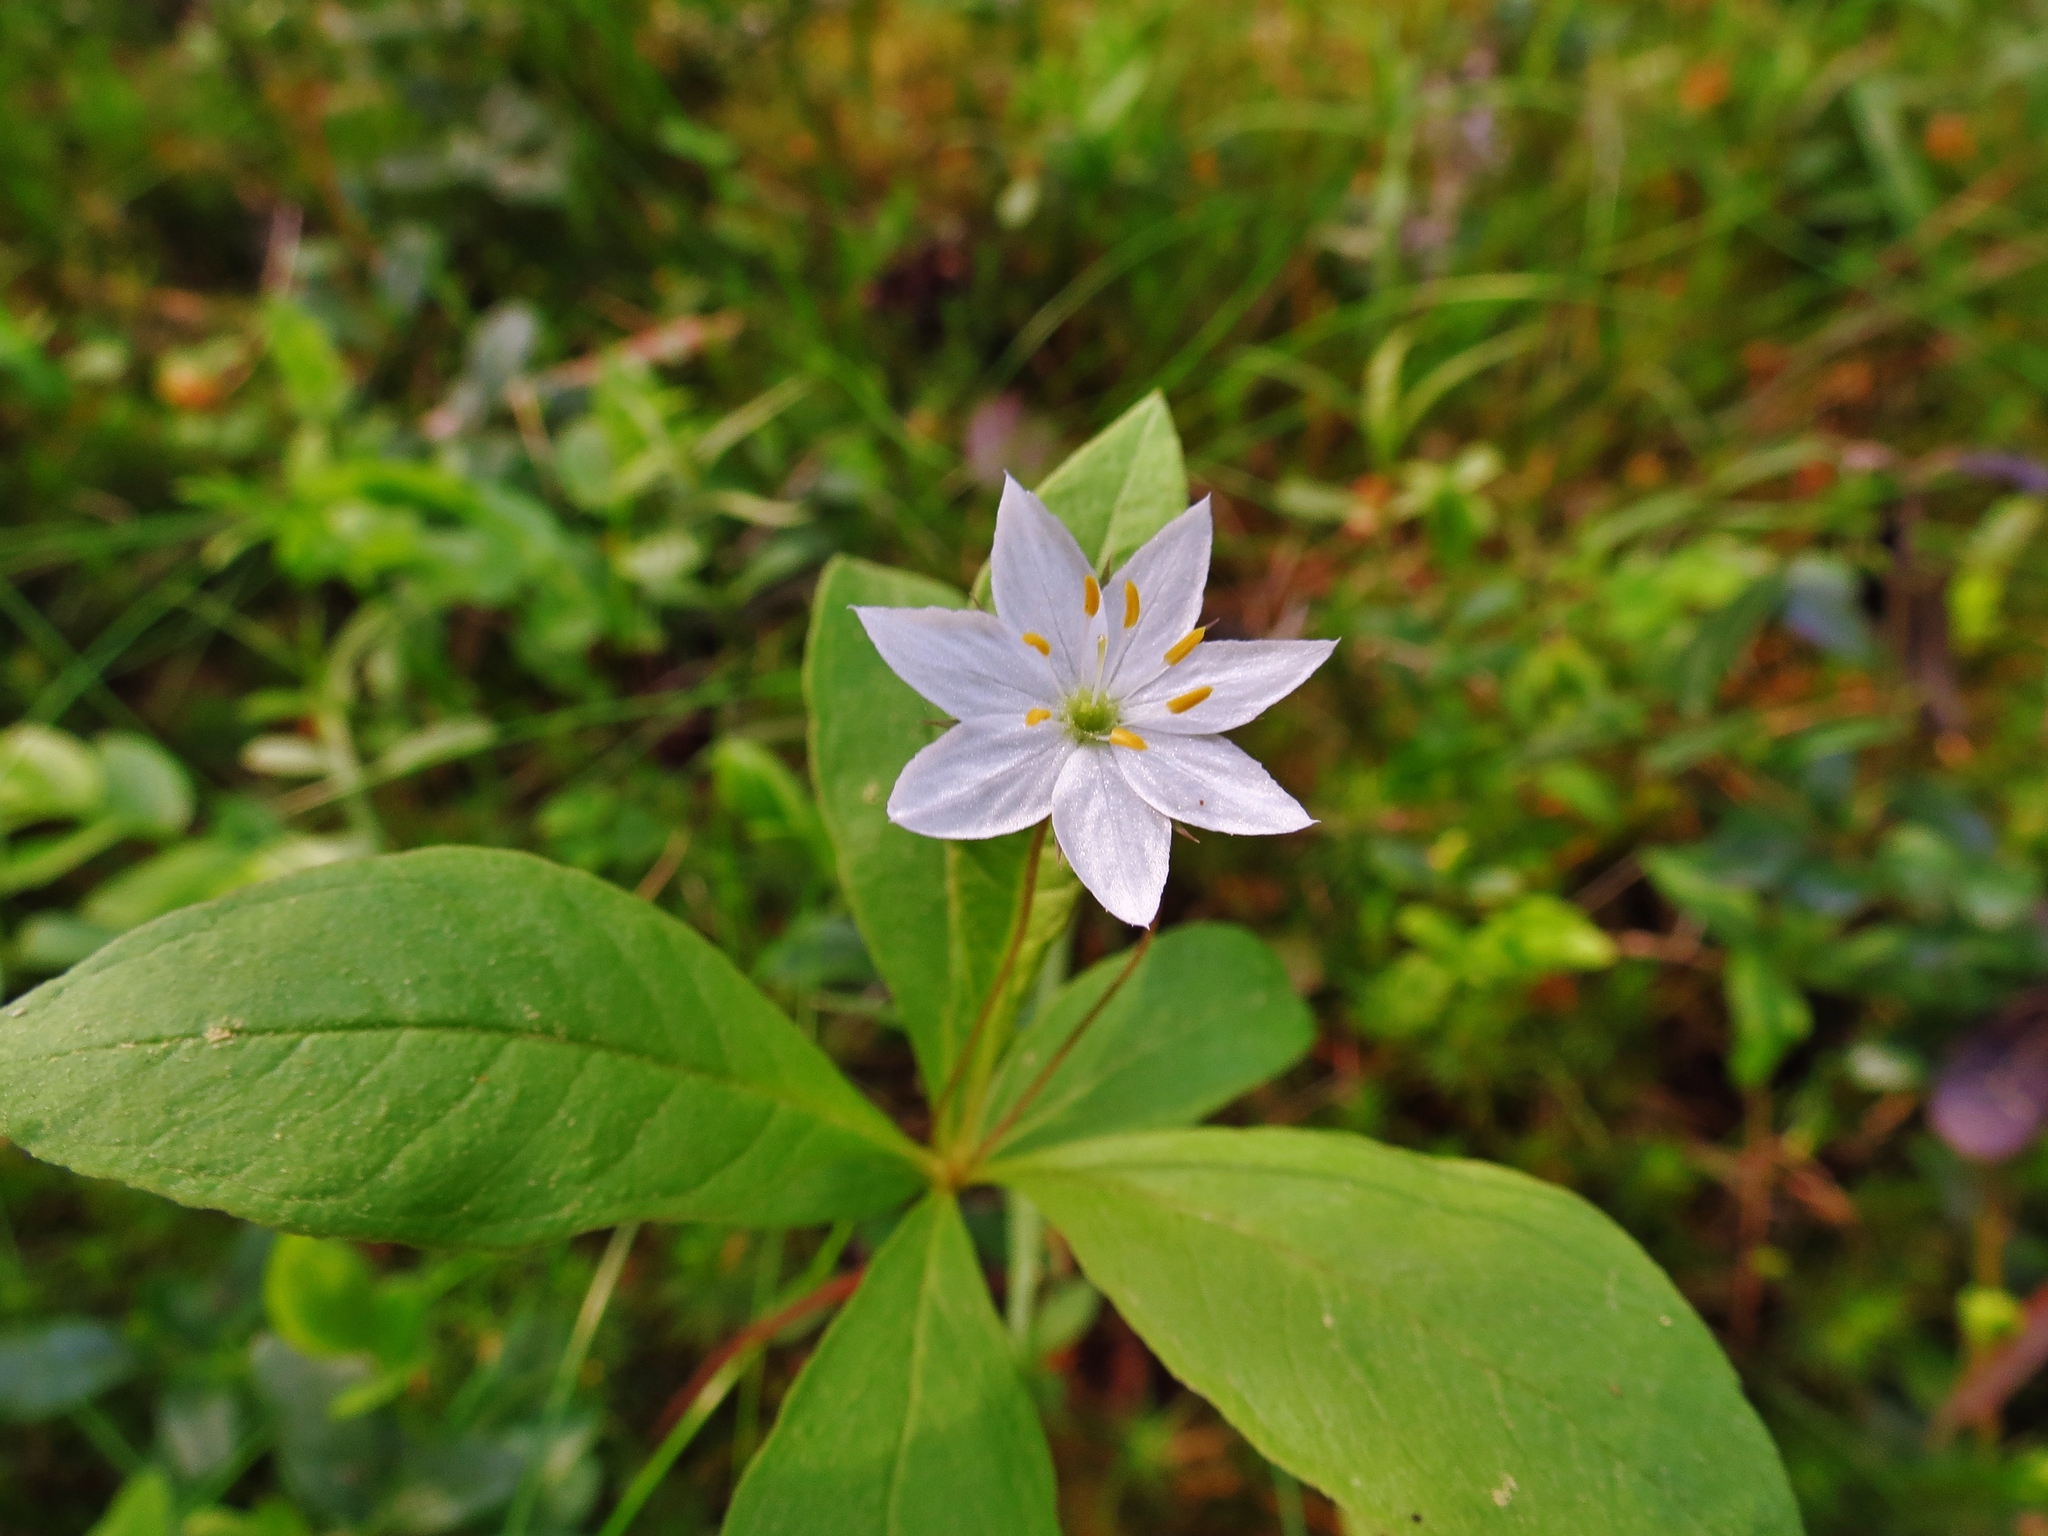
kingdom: Plantae
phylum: Tracheophyta
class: Magnoliopsida
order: Ericales
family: Primulaceae
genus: Lysimachia
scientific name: Lysimachia europaea
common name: Arctic starflower
